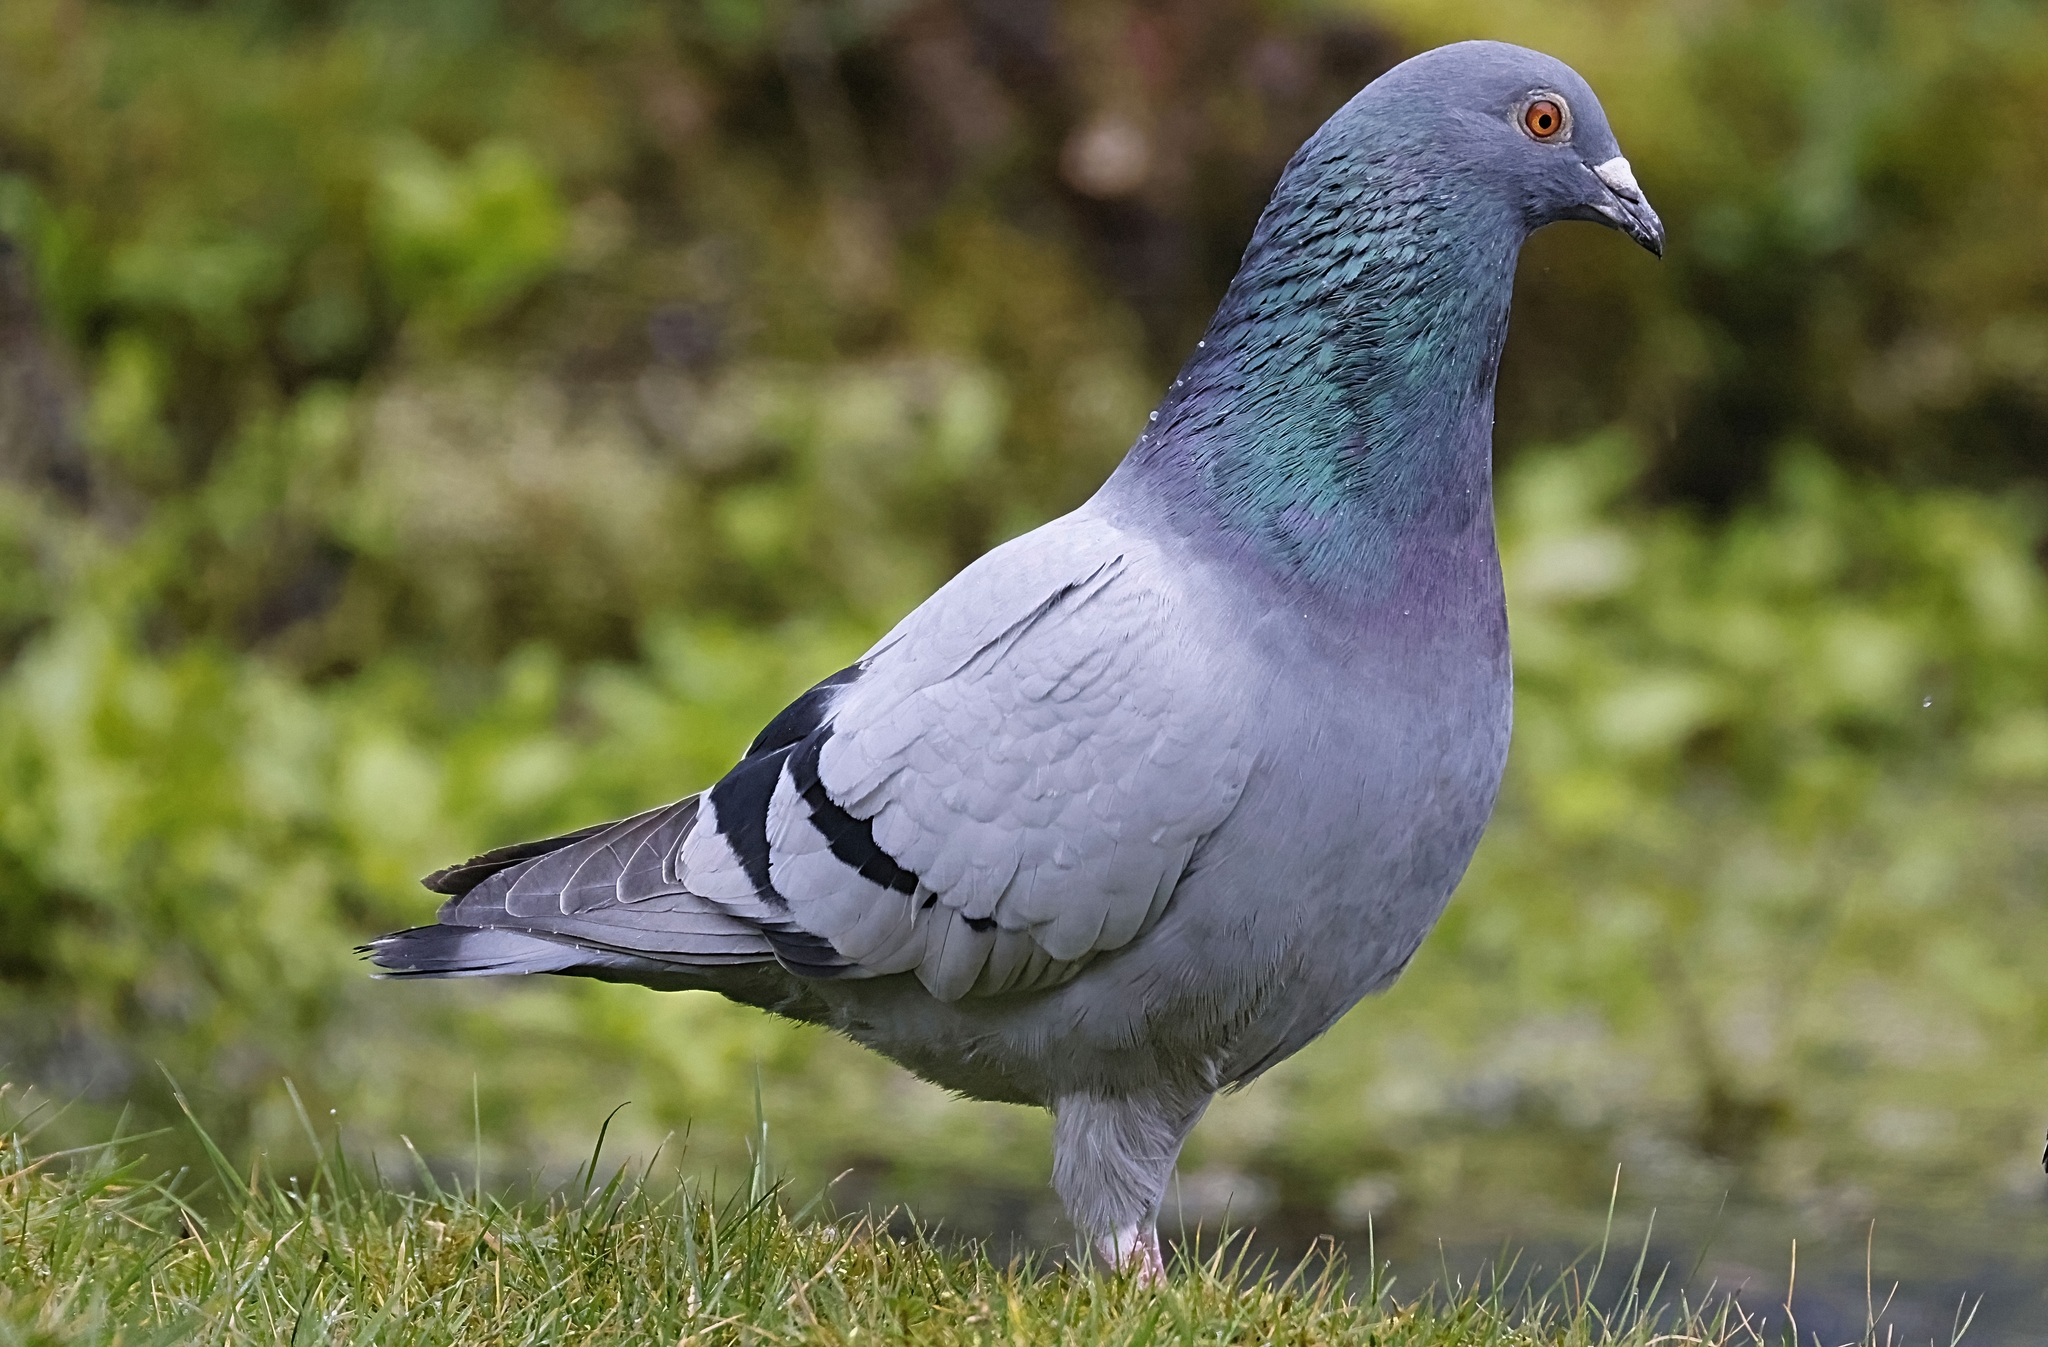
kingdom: Animalia
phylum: Chordata
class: Aves
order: Columbiformes
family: Columbidae
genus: Columba
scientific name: Columba livia
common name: Rock pigeon
